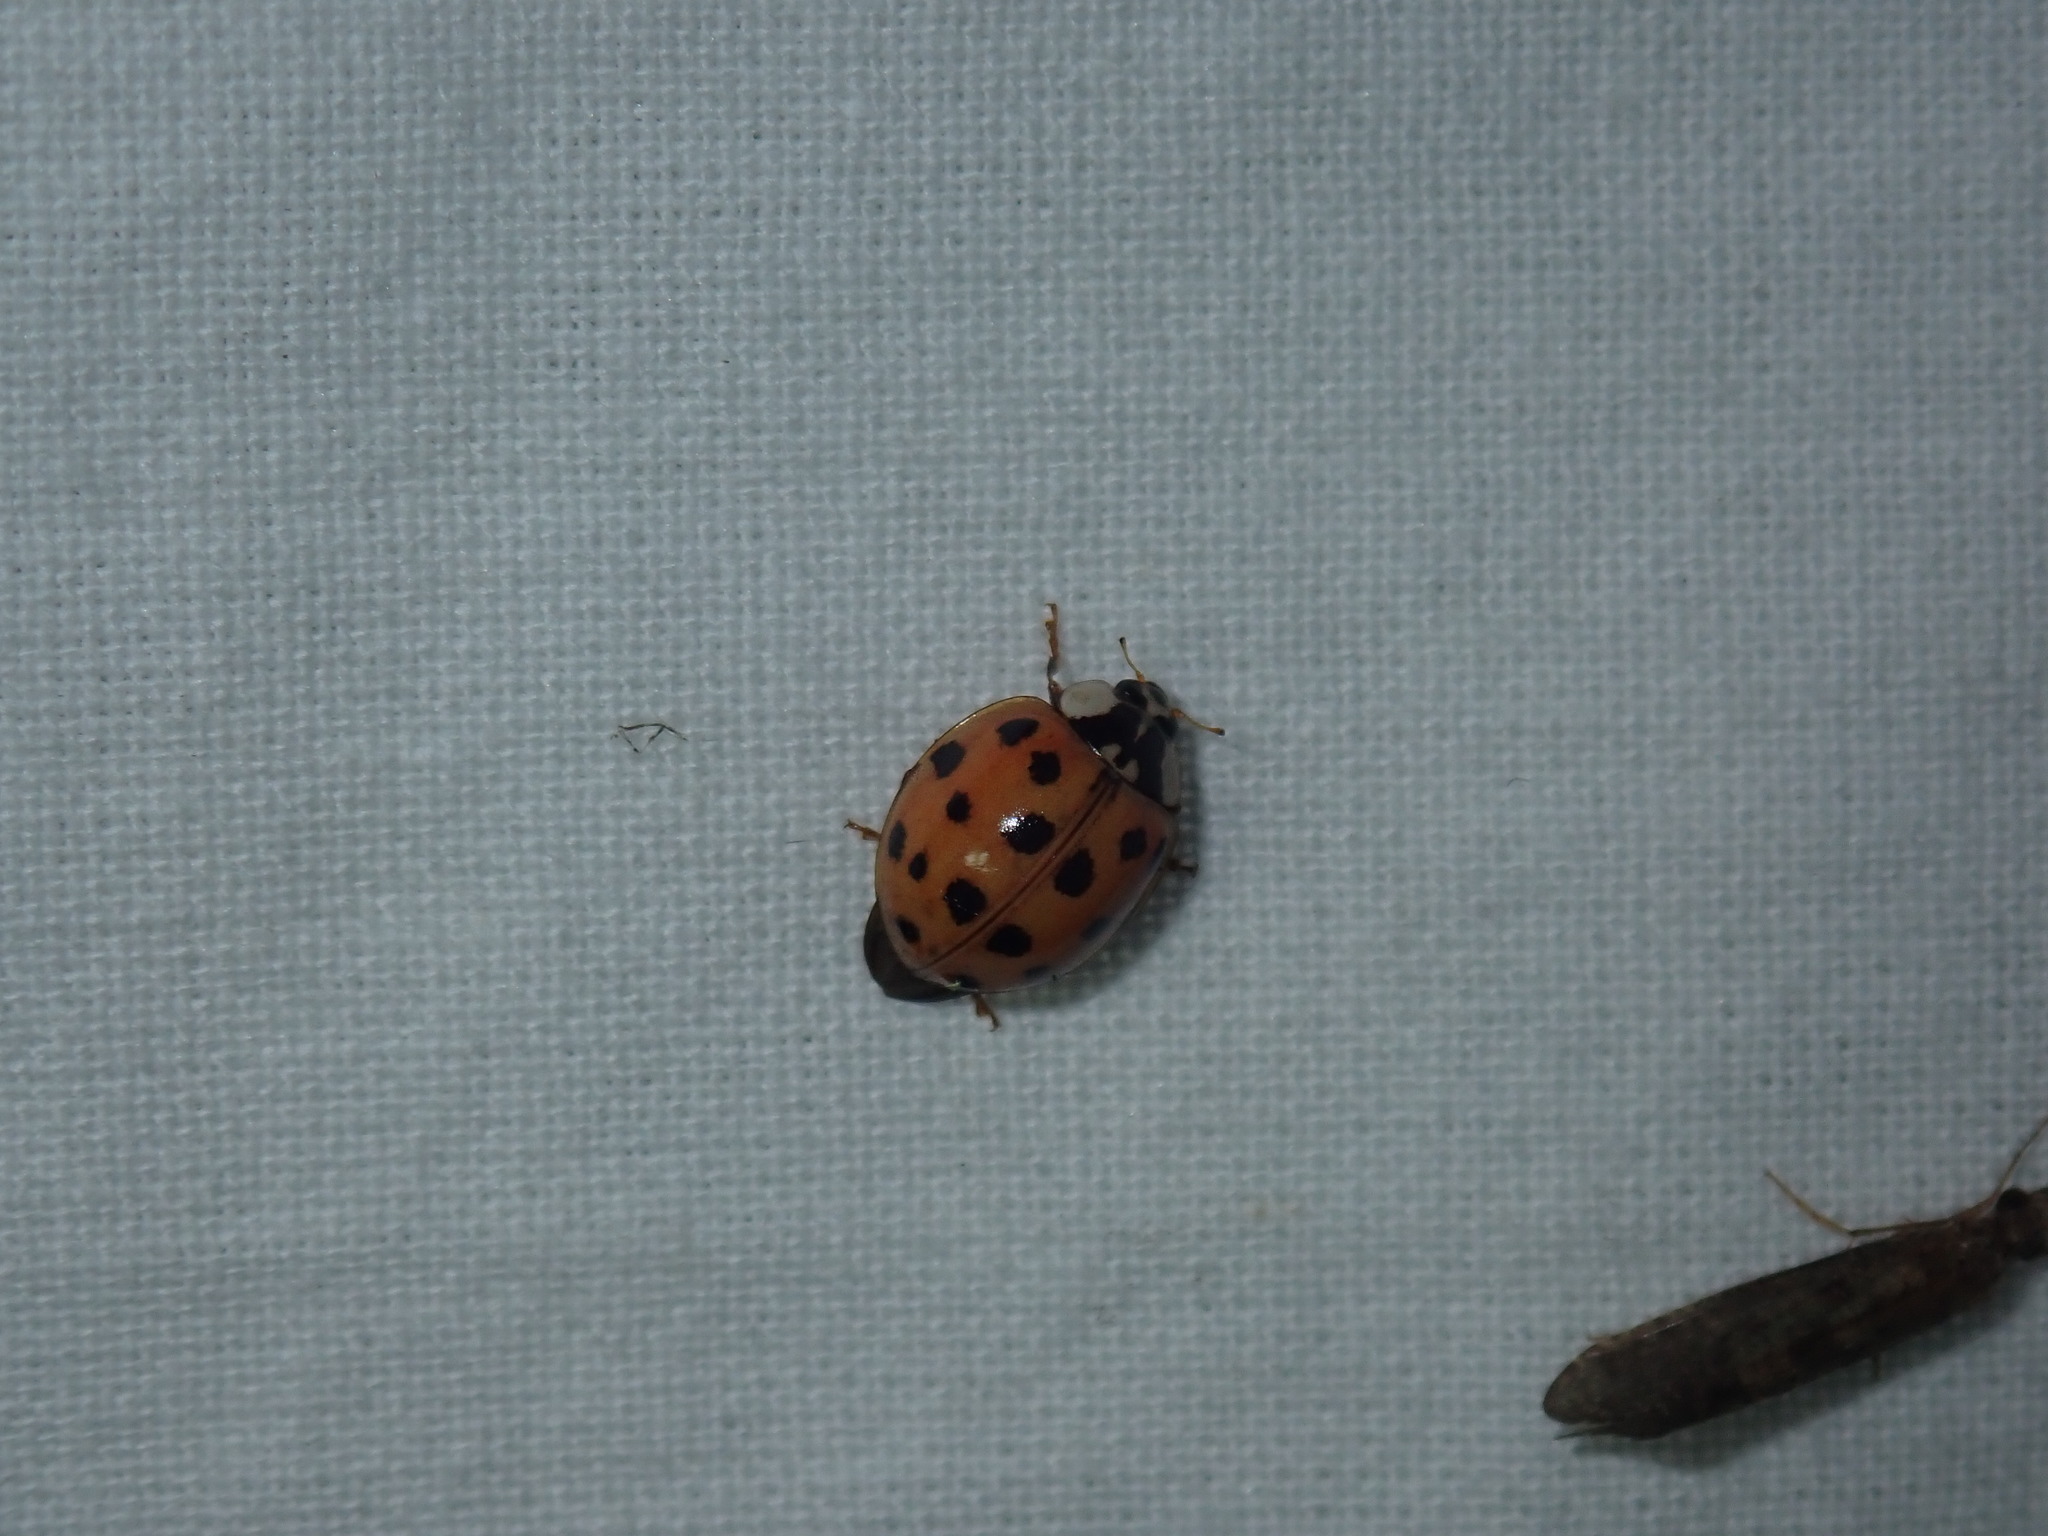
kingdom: Animalia
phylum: Arthropoda
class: Insecta
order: Coleoptera
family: Coccinellidae
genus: Harmonia
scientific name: Harmonia axyridis
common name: Harlequin ladybird
